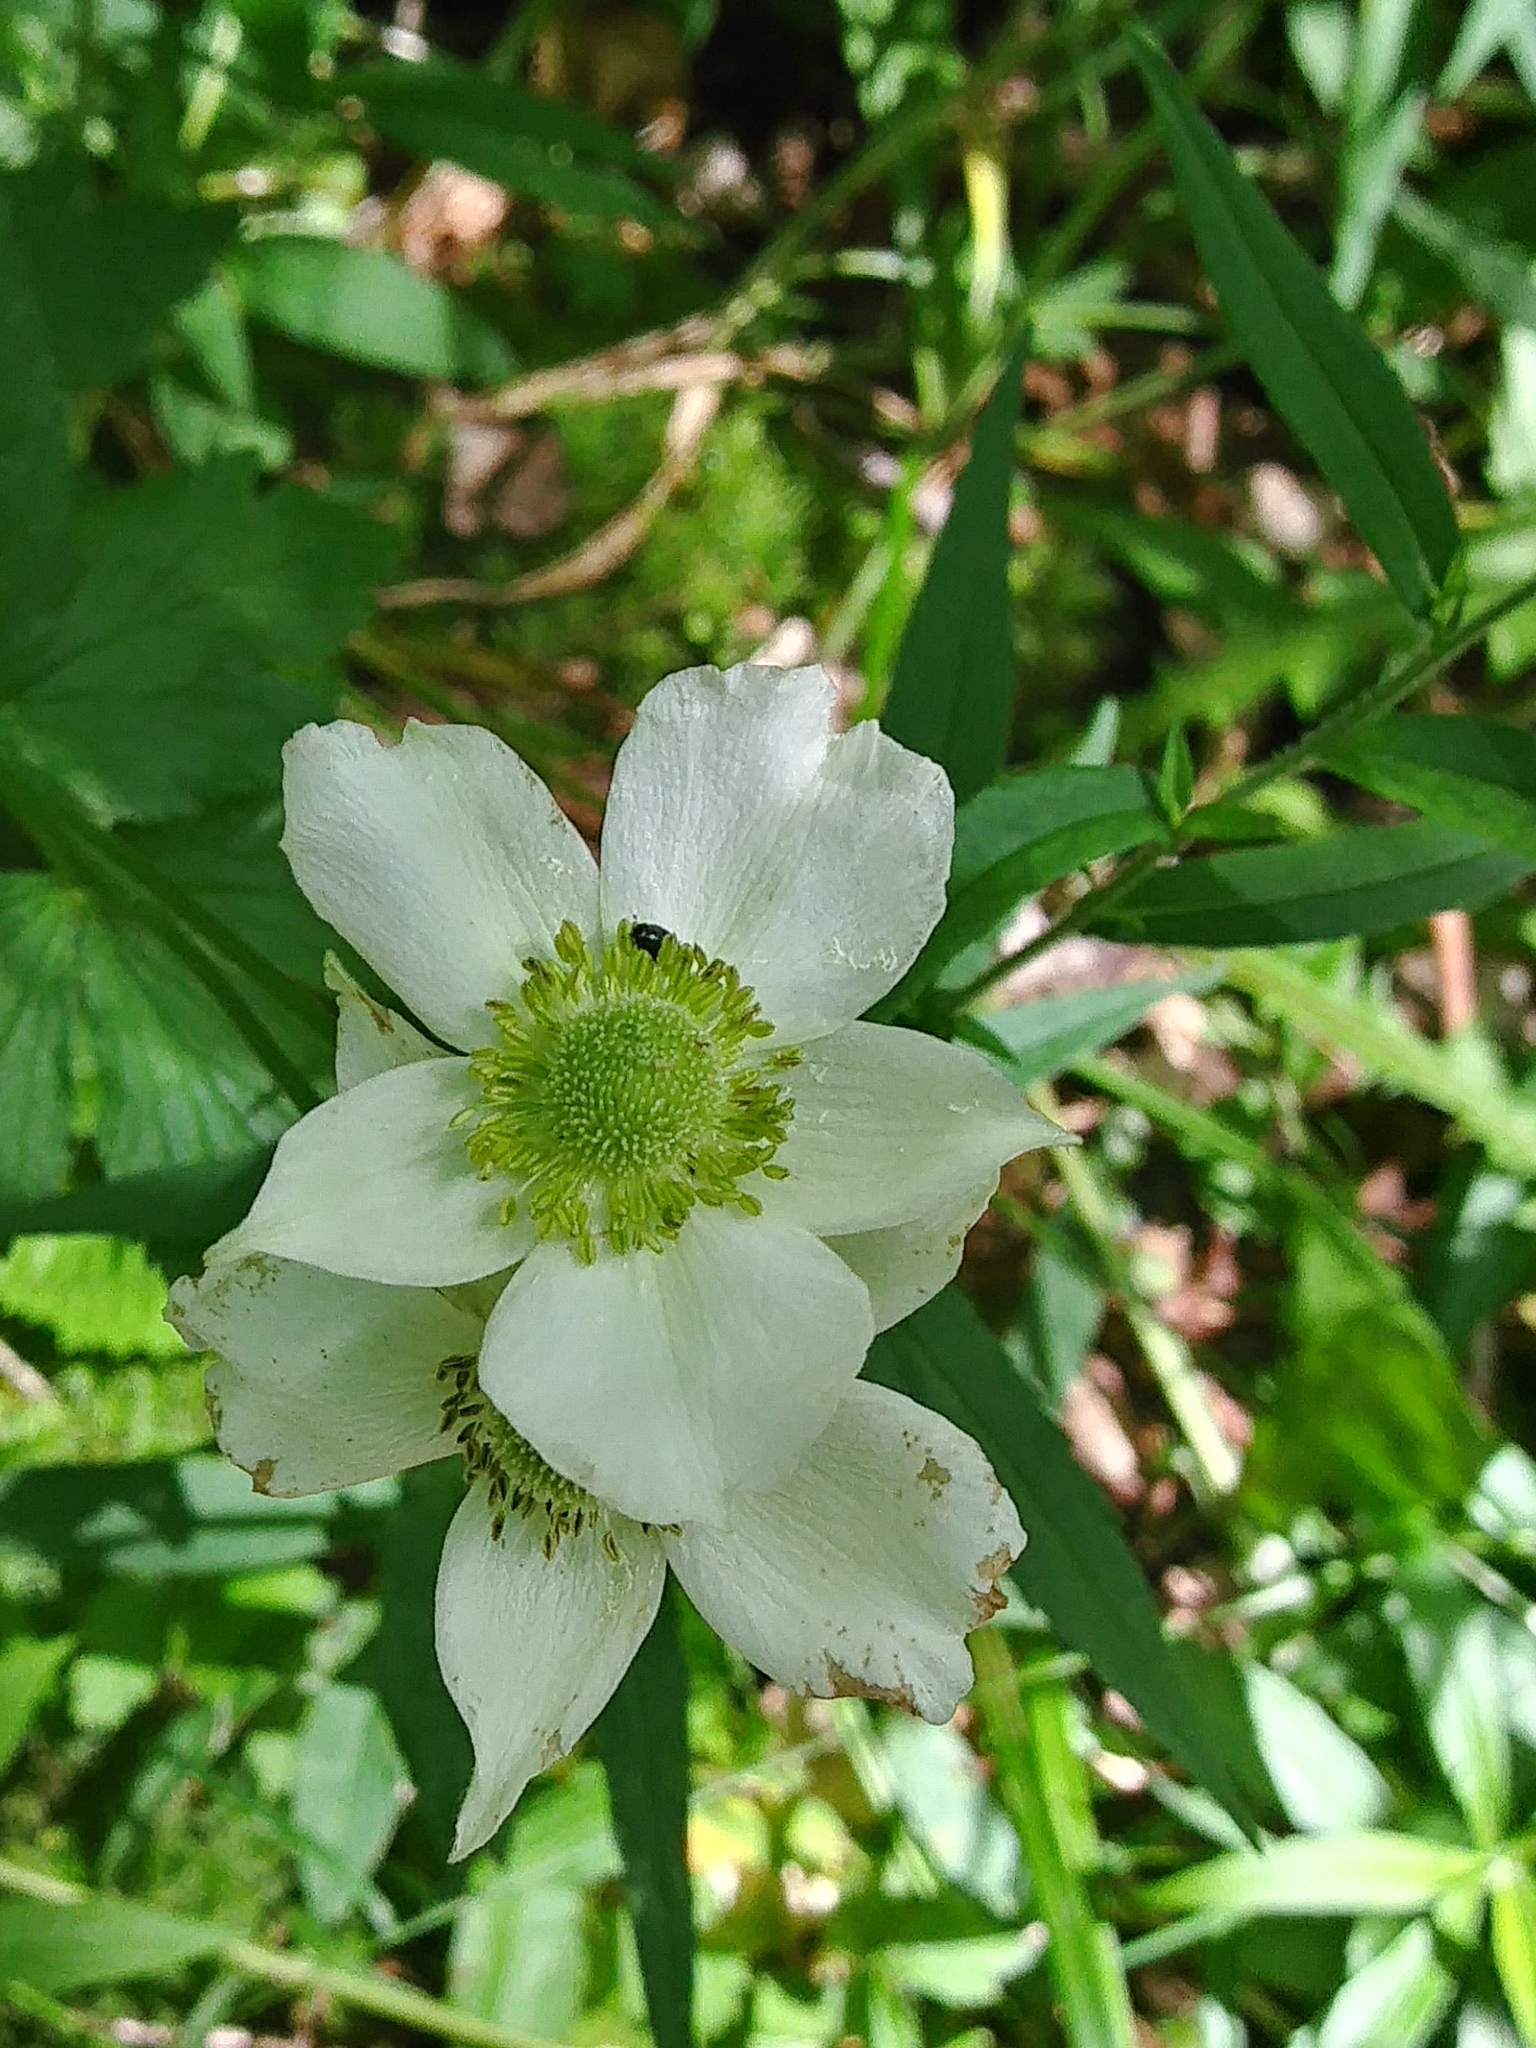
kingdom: Plantae
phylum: Tracheophyta
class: Magnoliopsida
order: Ranunculales
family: Ranunculaceae
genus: Anemone
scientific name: Anemone virginiana
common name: Tall anemone
